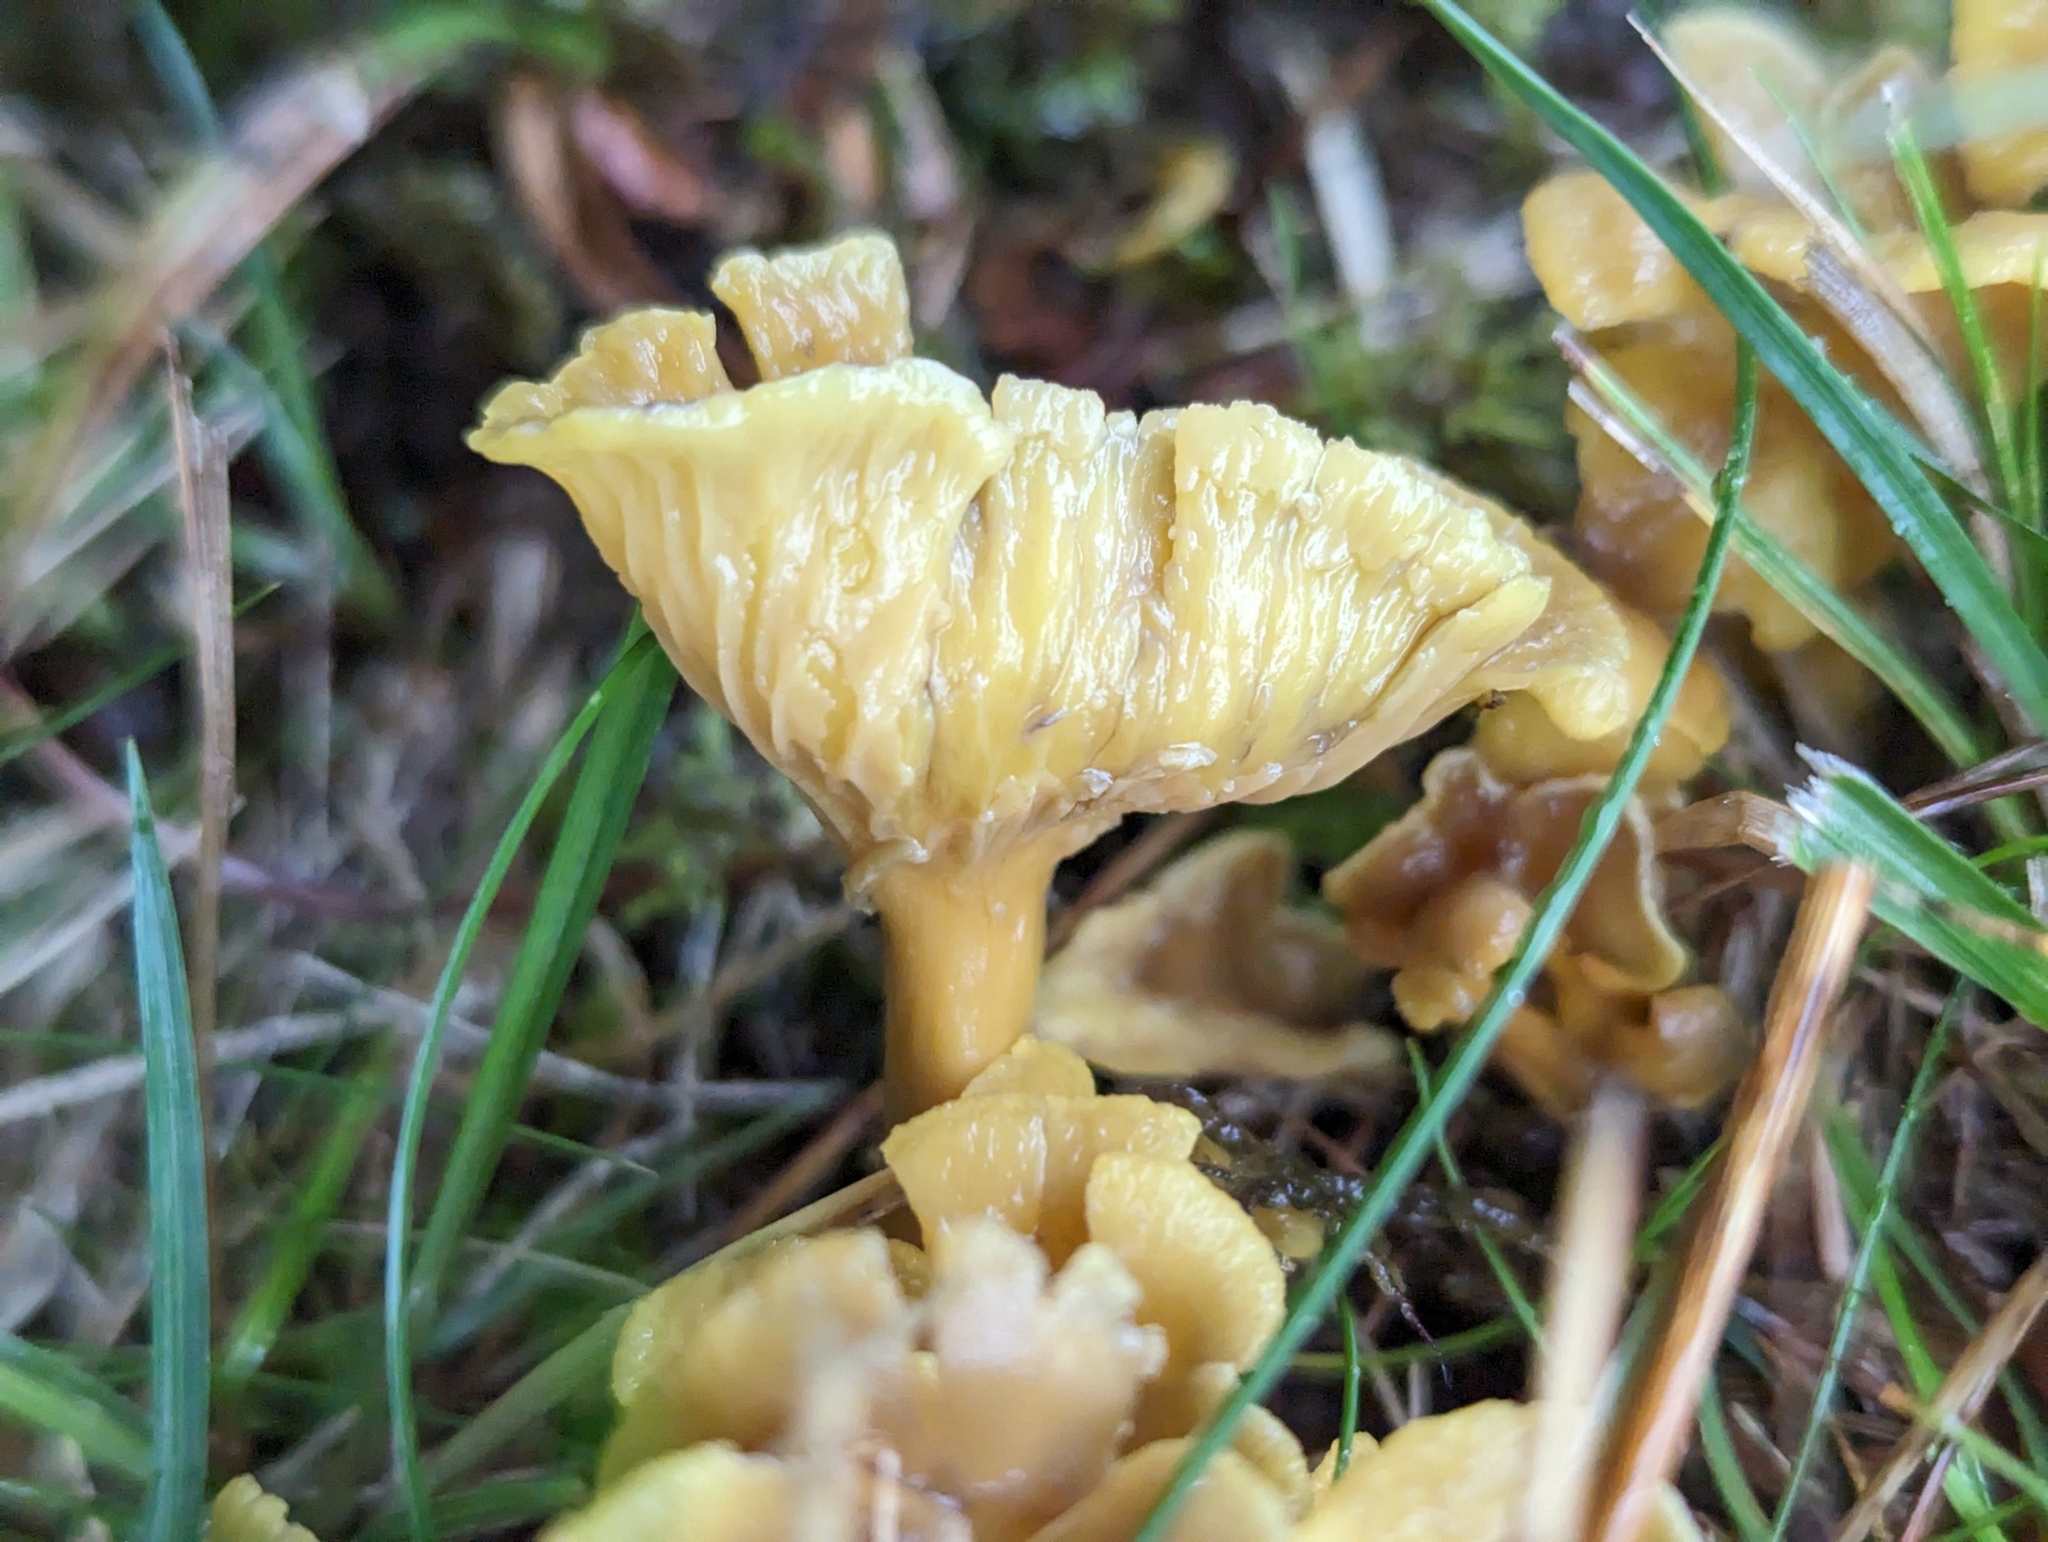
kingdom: Fungi
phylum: Basidiomycota
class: Agaricomycetes
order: Cantharellales
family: Hydnaceae
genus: Craterellus
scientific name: Craterellus tubaeformis
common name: Yellowfoot
